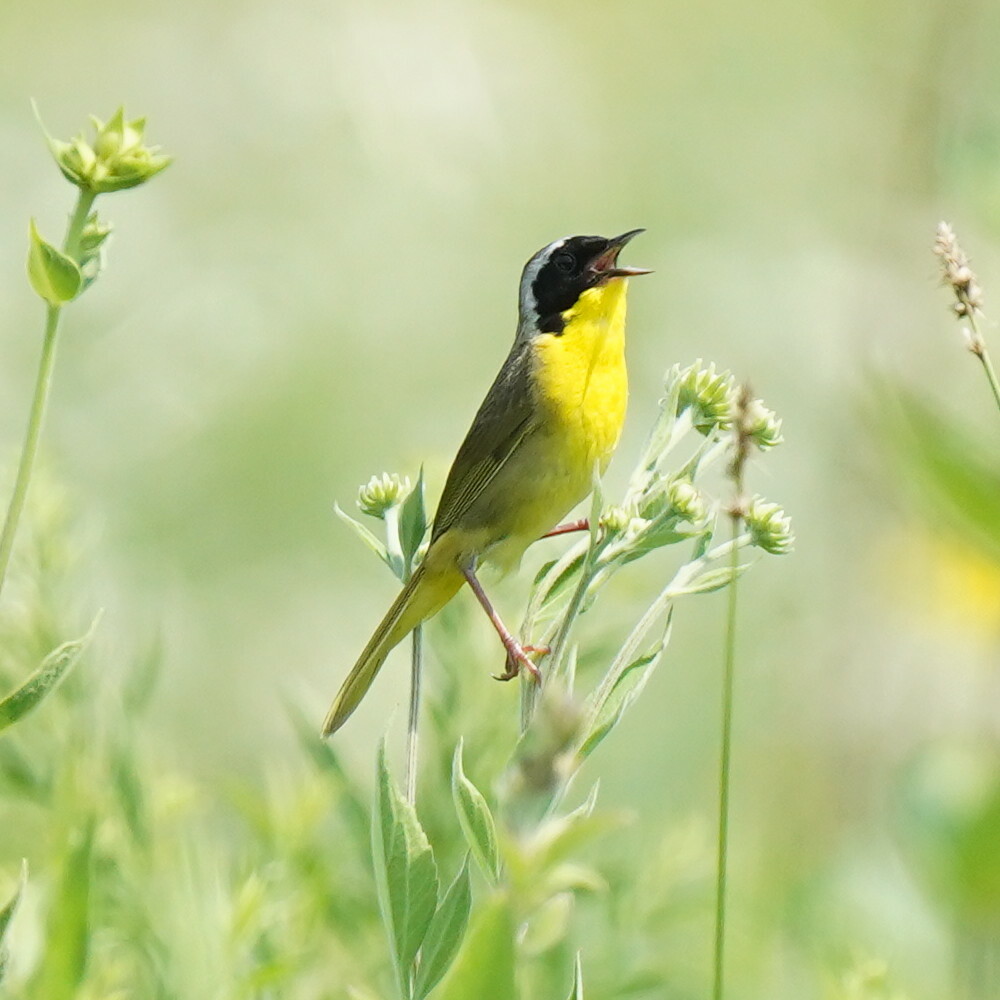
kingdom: Animalia
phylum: Chordata
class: Aves
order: Passeriformes
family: Parulidae
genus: Geothlypis
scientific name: Geothlypis trichas
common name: Common yellowthroat
